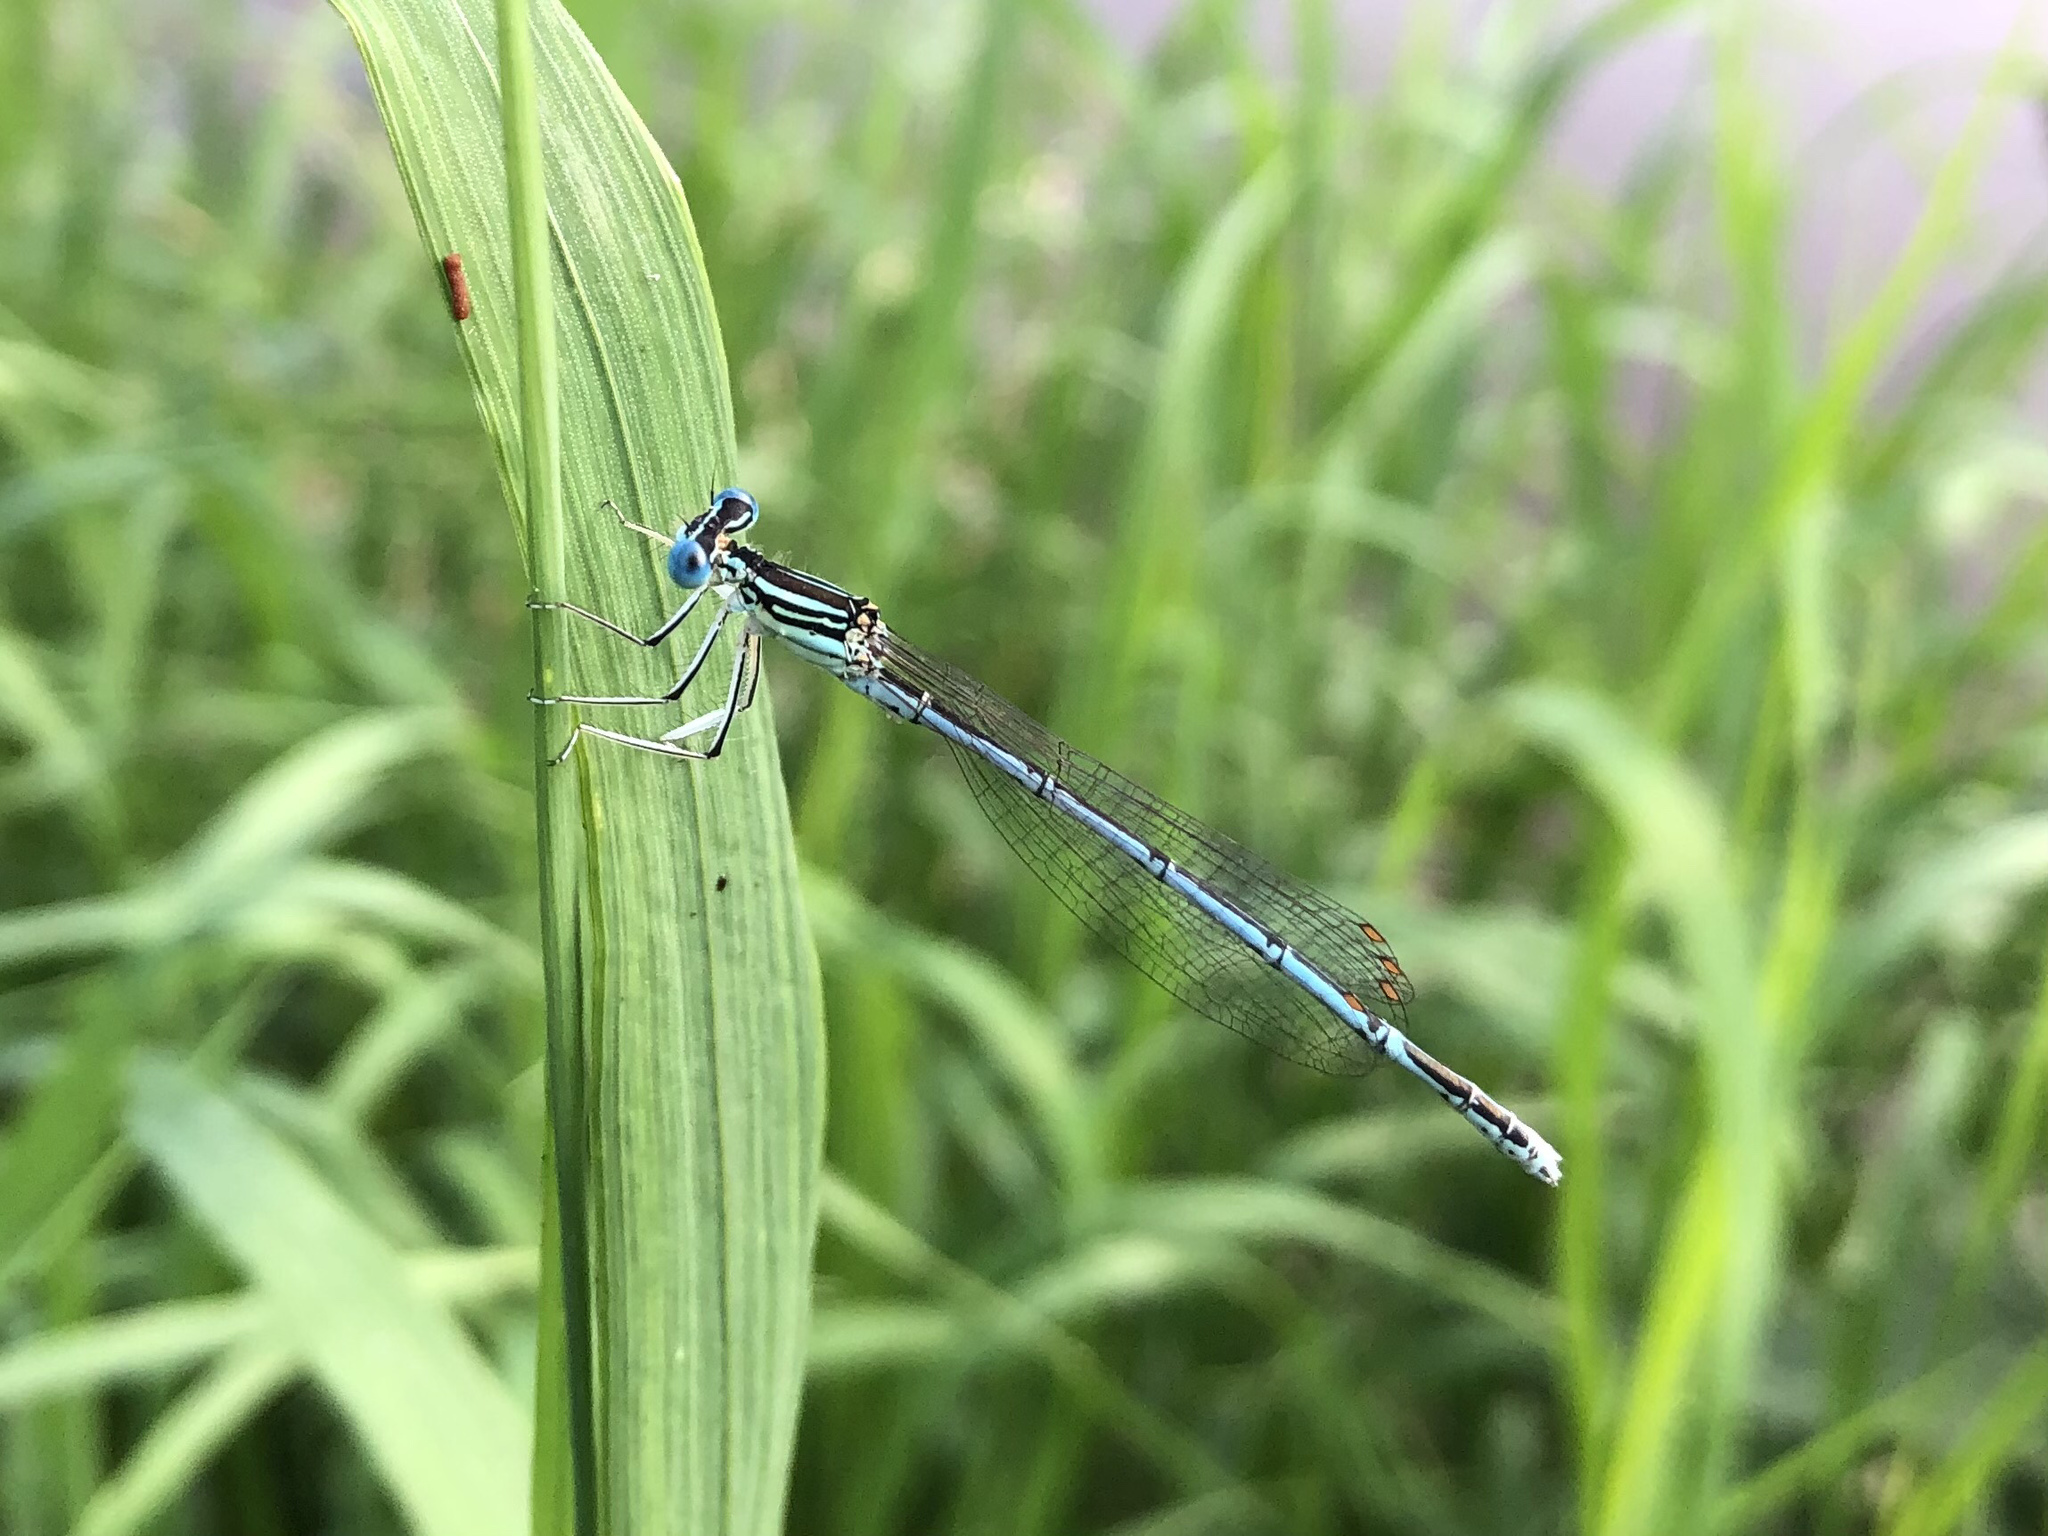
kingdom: Animalia
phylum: Arthropoda
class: Insecta
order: Odonata
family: Platycnemididae
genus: Platycnemis
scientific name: Platycnemis pennipes
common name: White-legged damselfly
